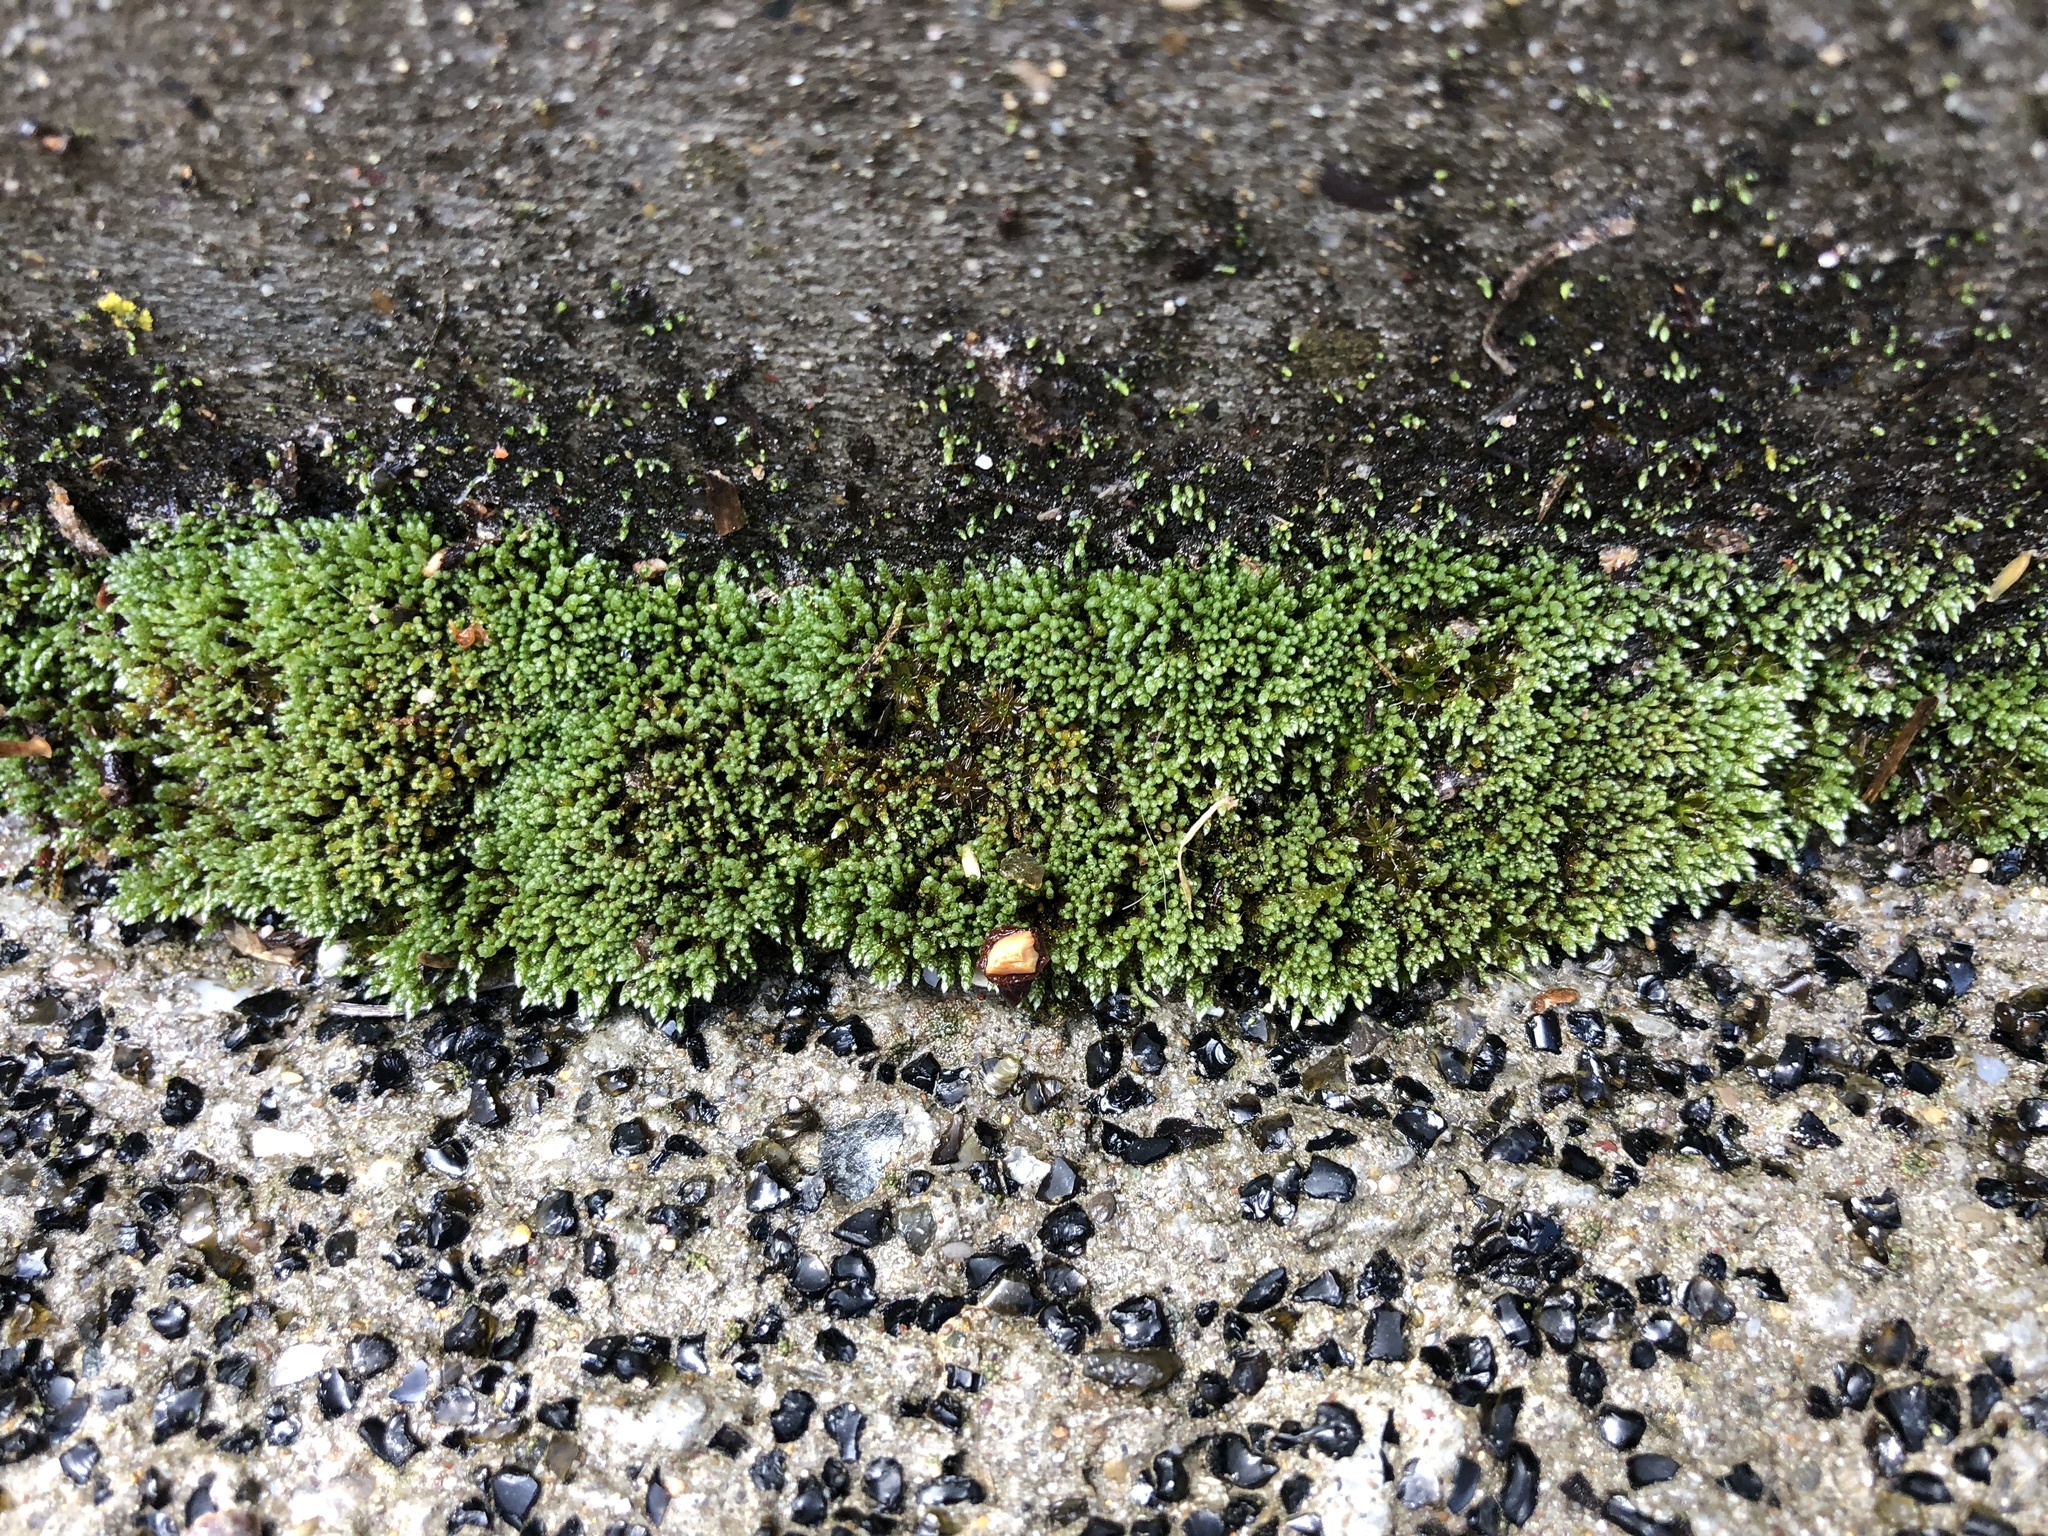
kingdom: Plantae
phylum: Bryophyta
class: Bryopsida
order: Bryales
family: Bryaceae
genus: Bryum
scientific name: Bryum argenteum
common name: Silver-moss
